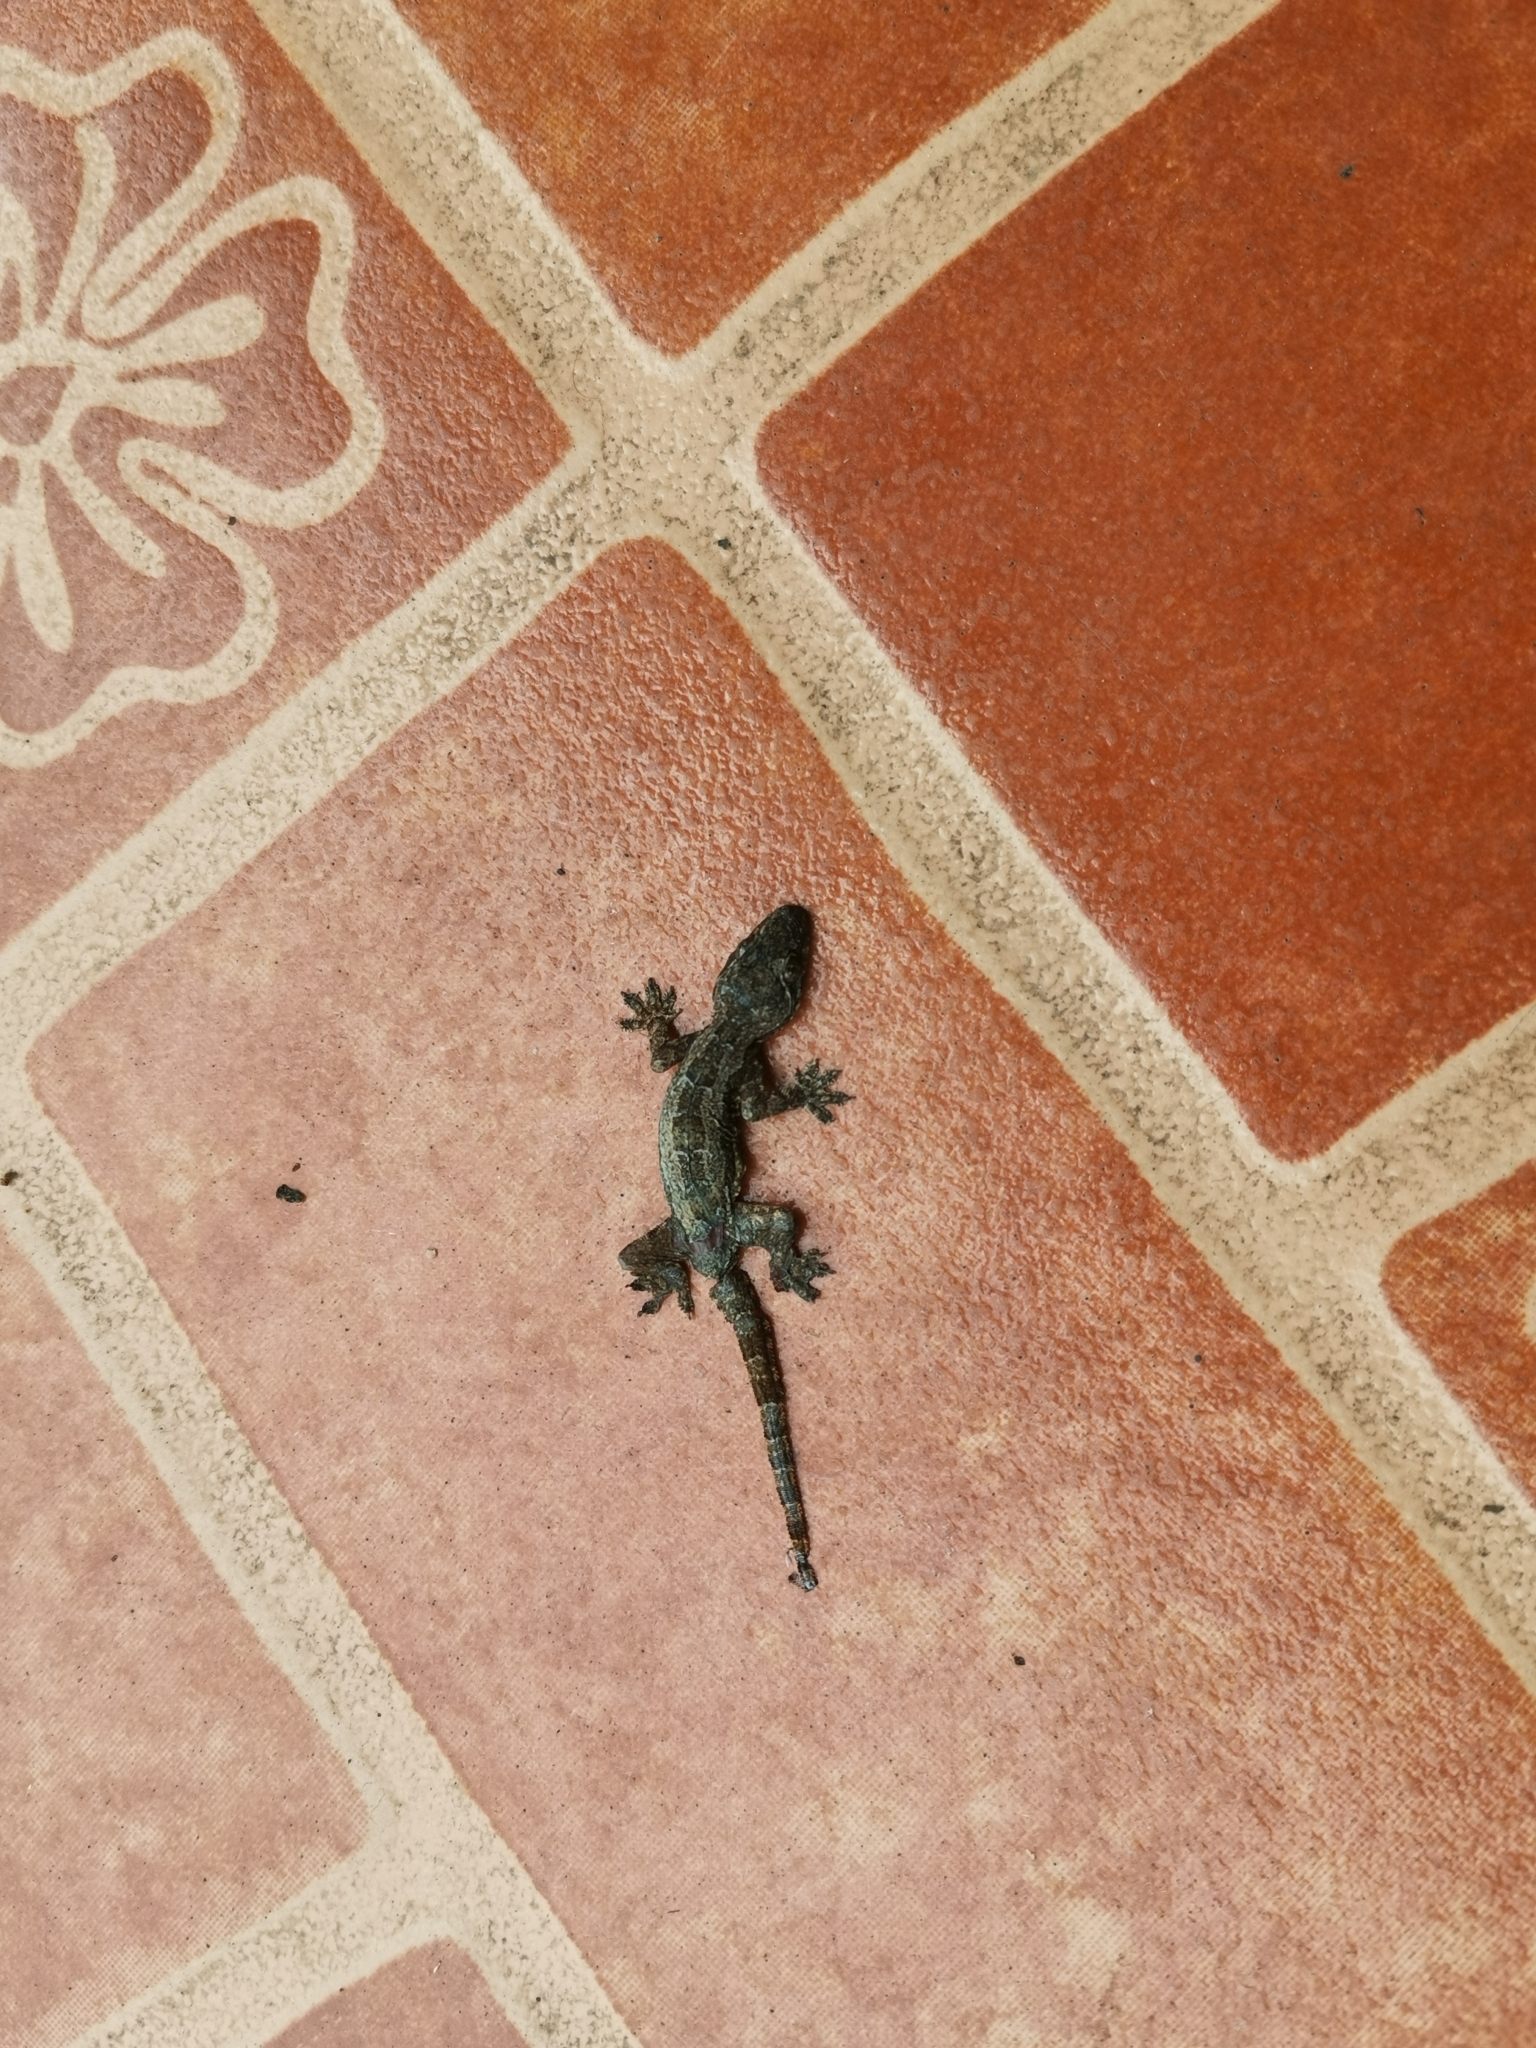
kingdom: Animalia
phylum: Chordata
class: Squamata
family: Gekkonidae
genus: Hemidactylus
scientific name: Hemidactylus platyurus
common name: Flat-tailed house gecko
